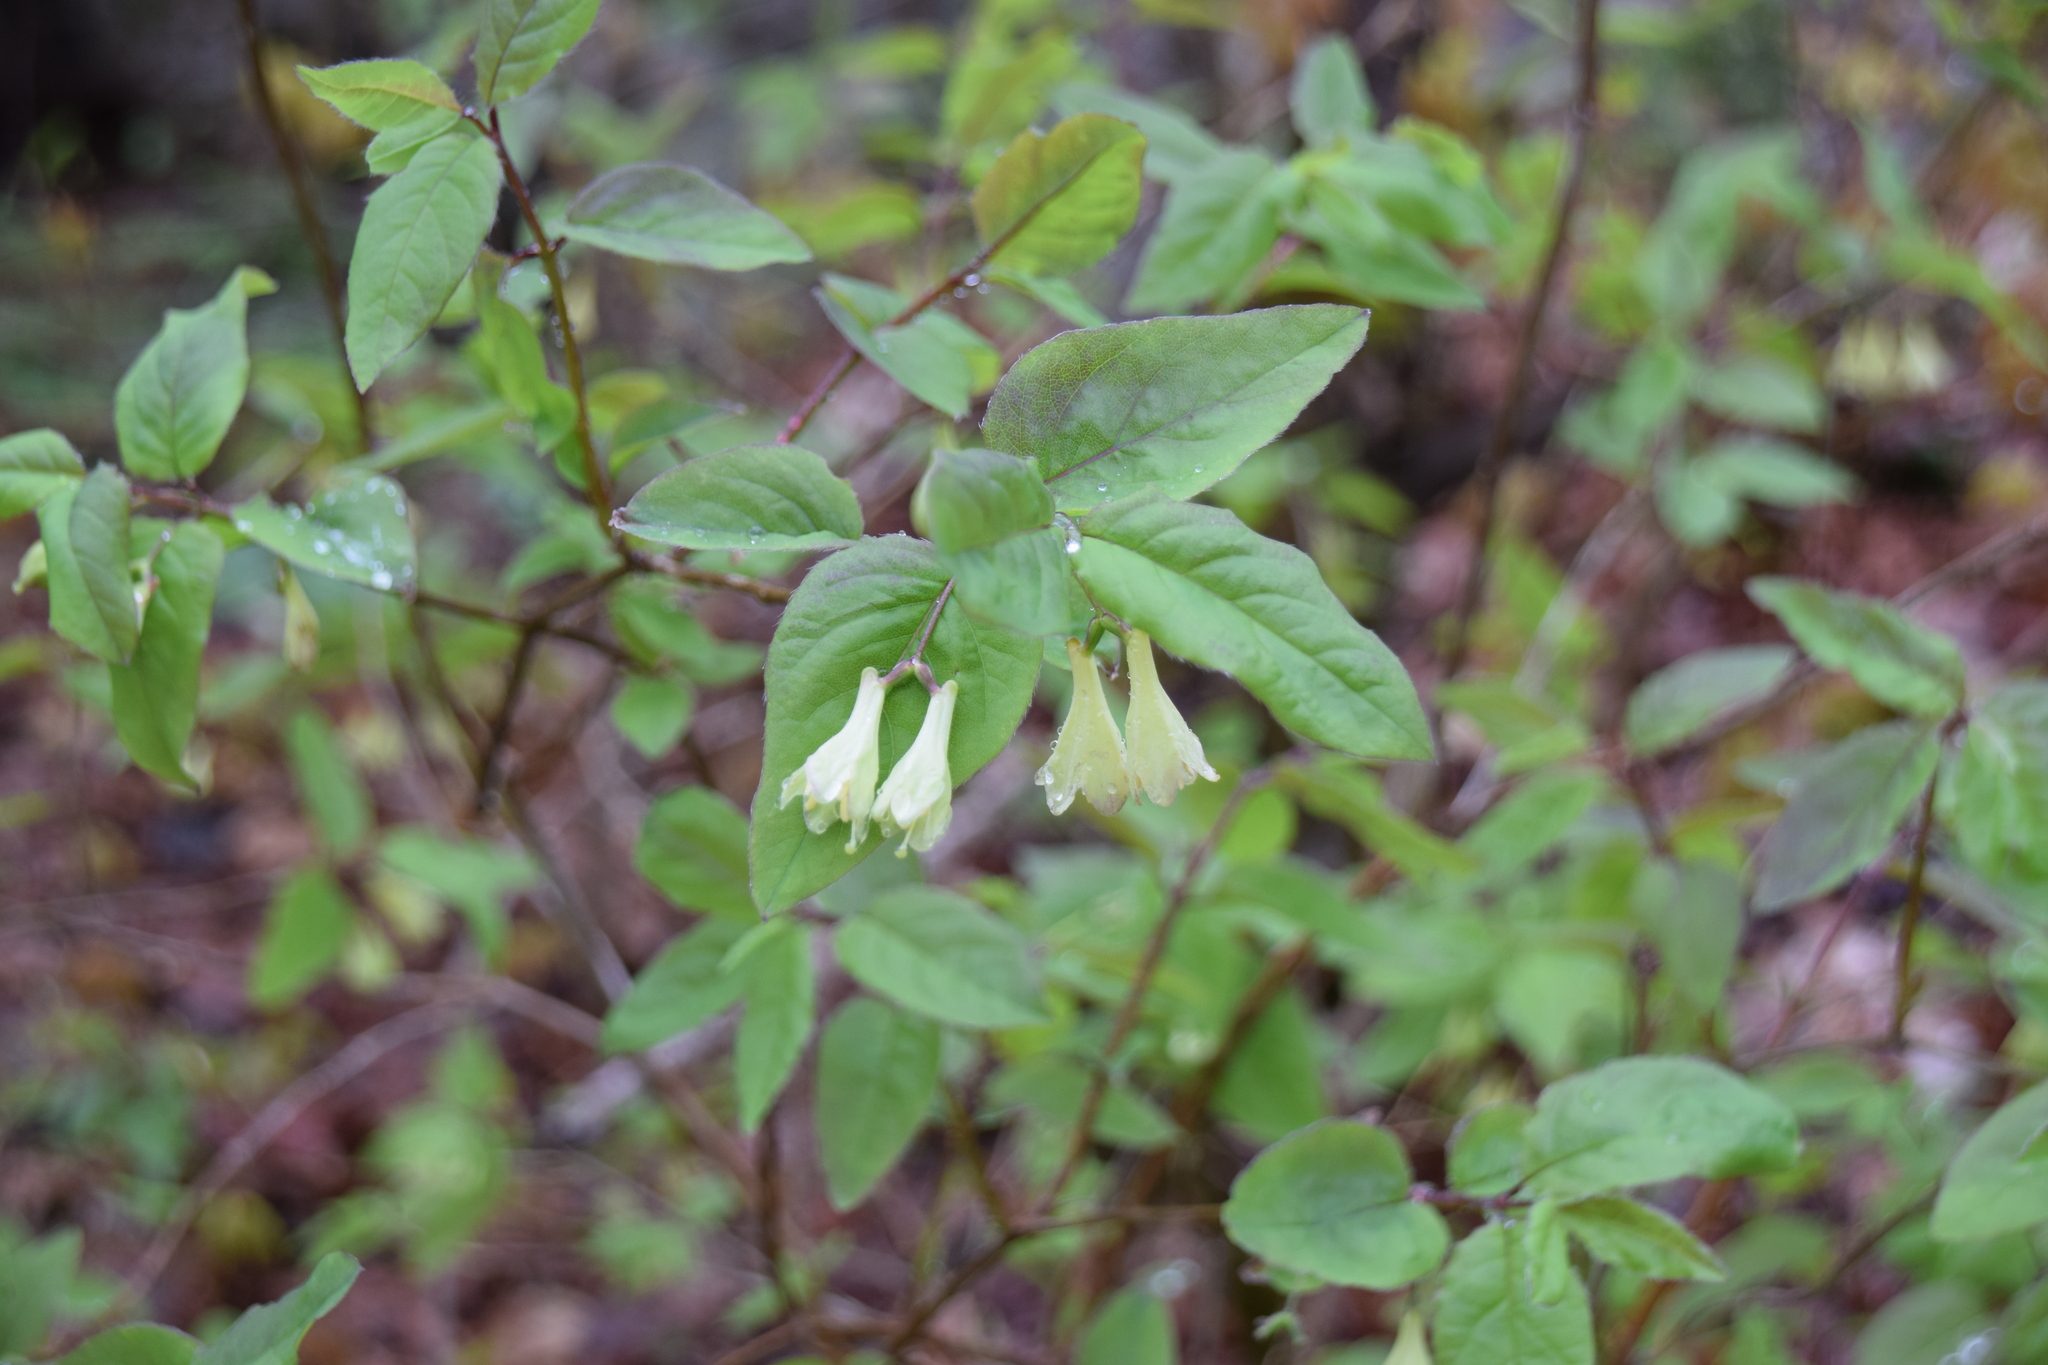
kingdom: Plantae
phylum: Tracheophyta
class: Magnoliopsida
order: Dipsacales
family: Caprifoliaceae
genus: Lonicera
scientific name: Lonicera canadensis
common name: American fly-honeysuckle
